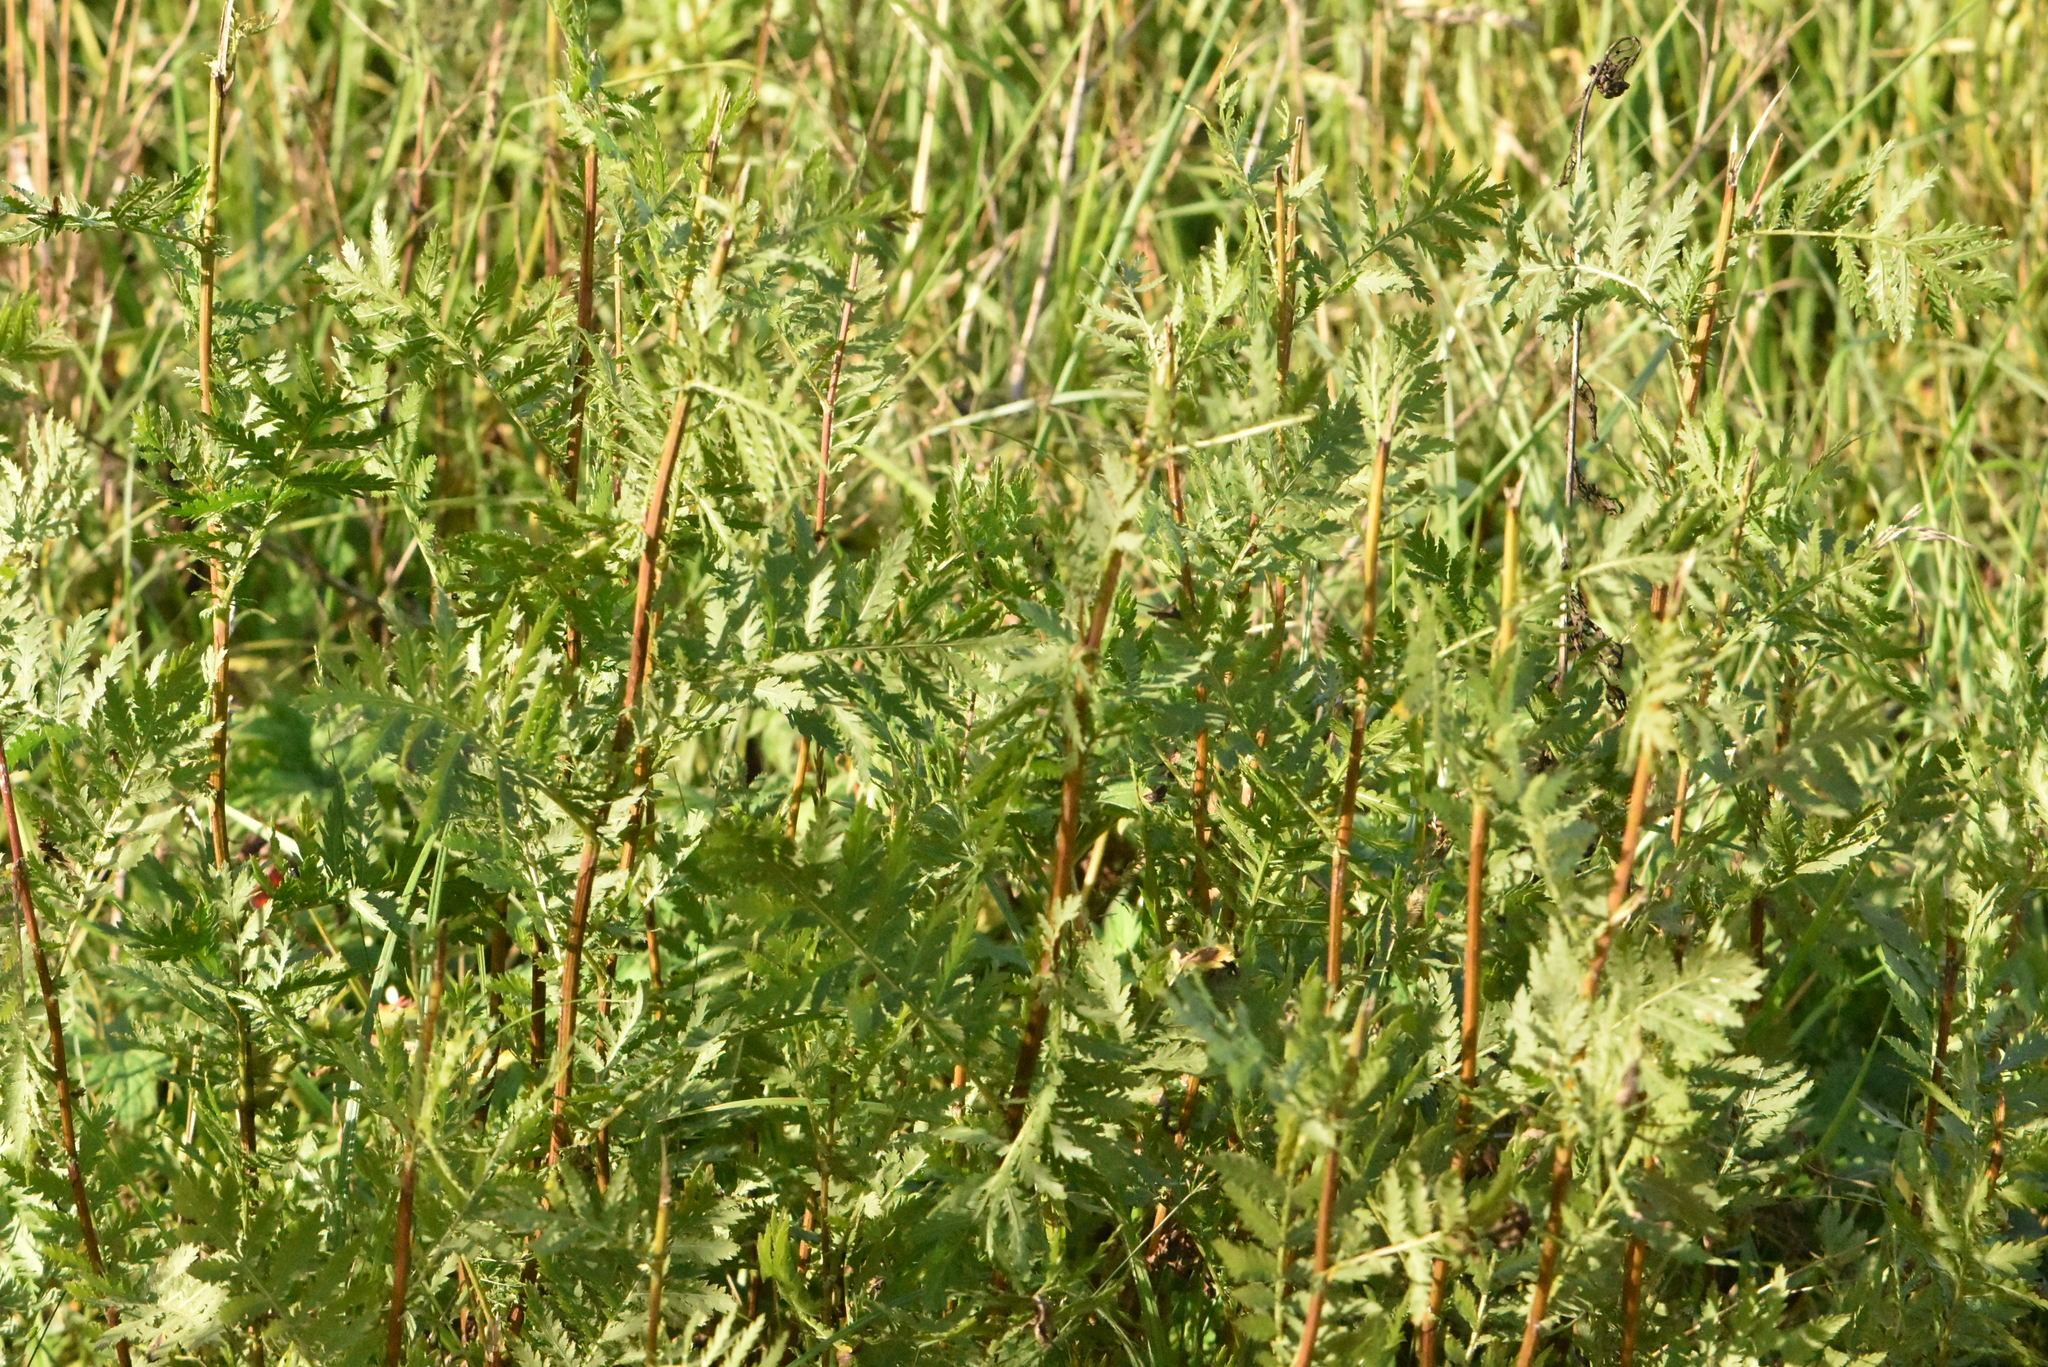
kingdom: Plantae
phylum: Tracheophyta
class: Magnoliopsida
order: Asterales
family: Asteraceae
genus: Tanacetum
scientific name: Tanacetum vulgare
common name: Common tansy
